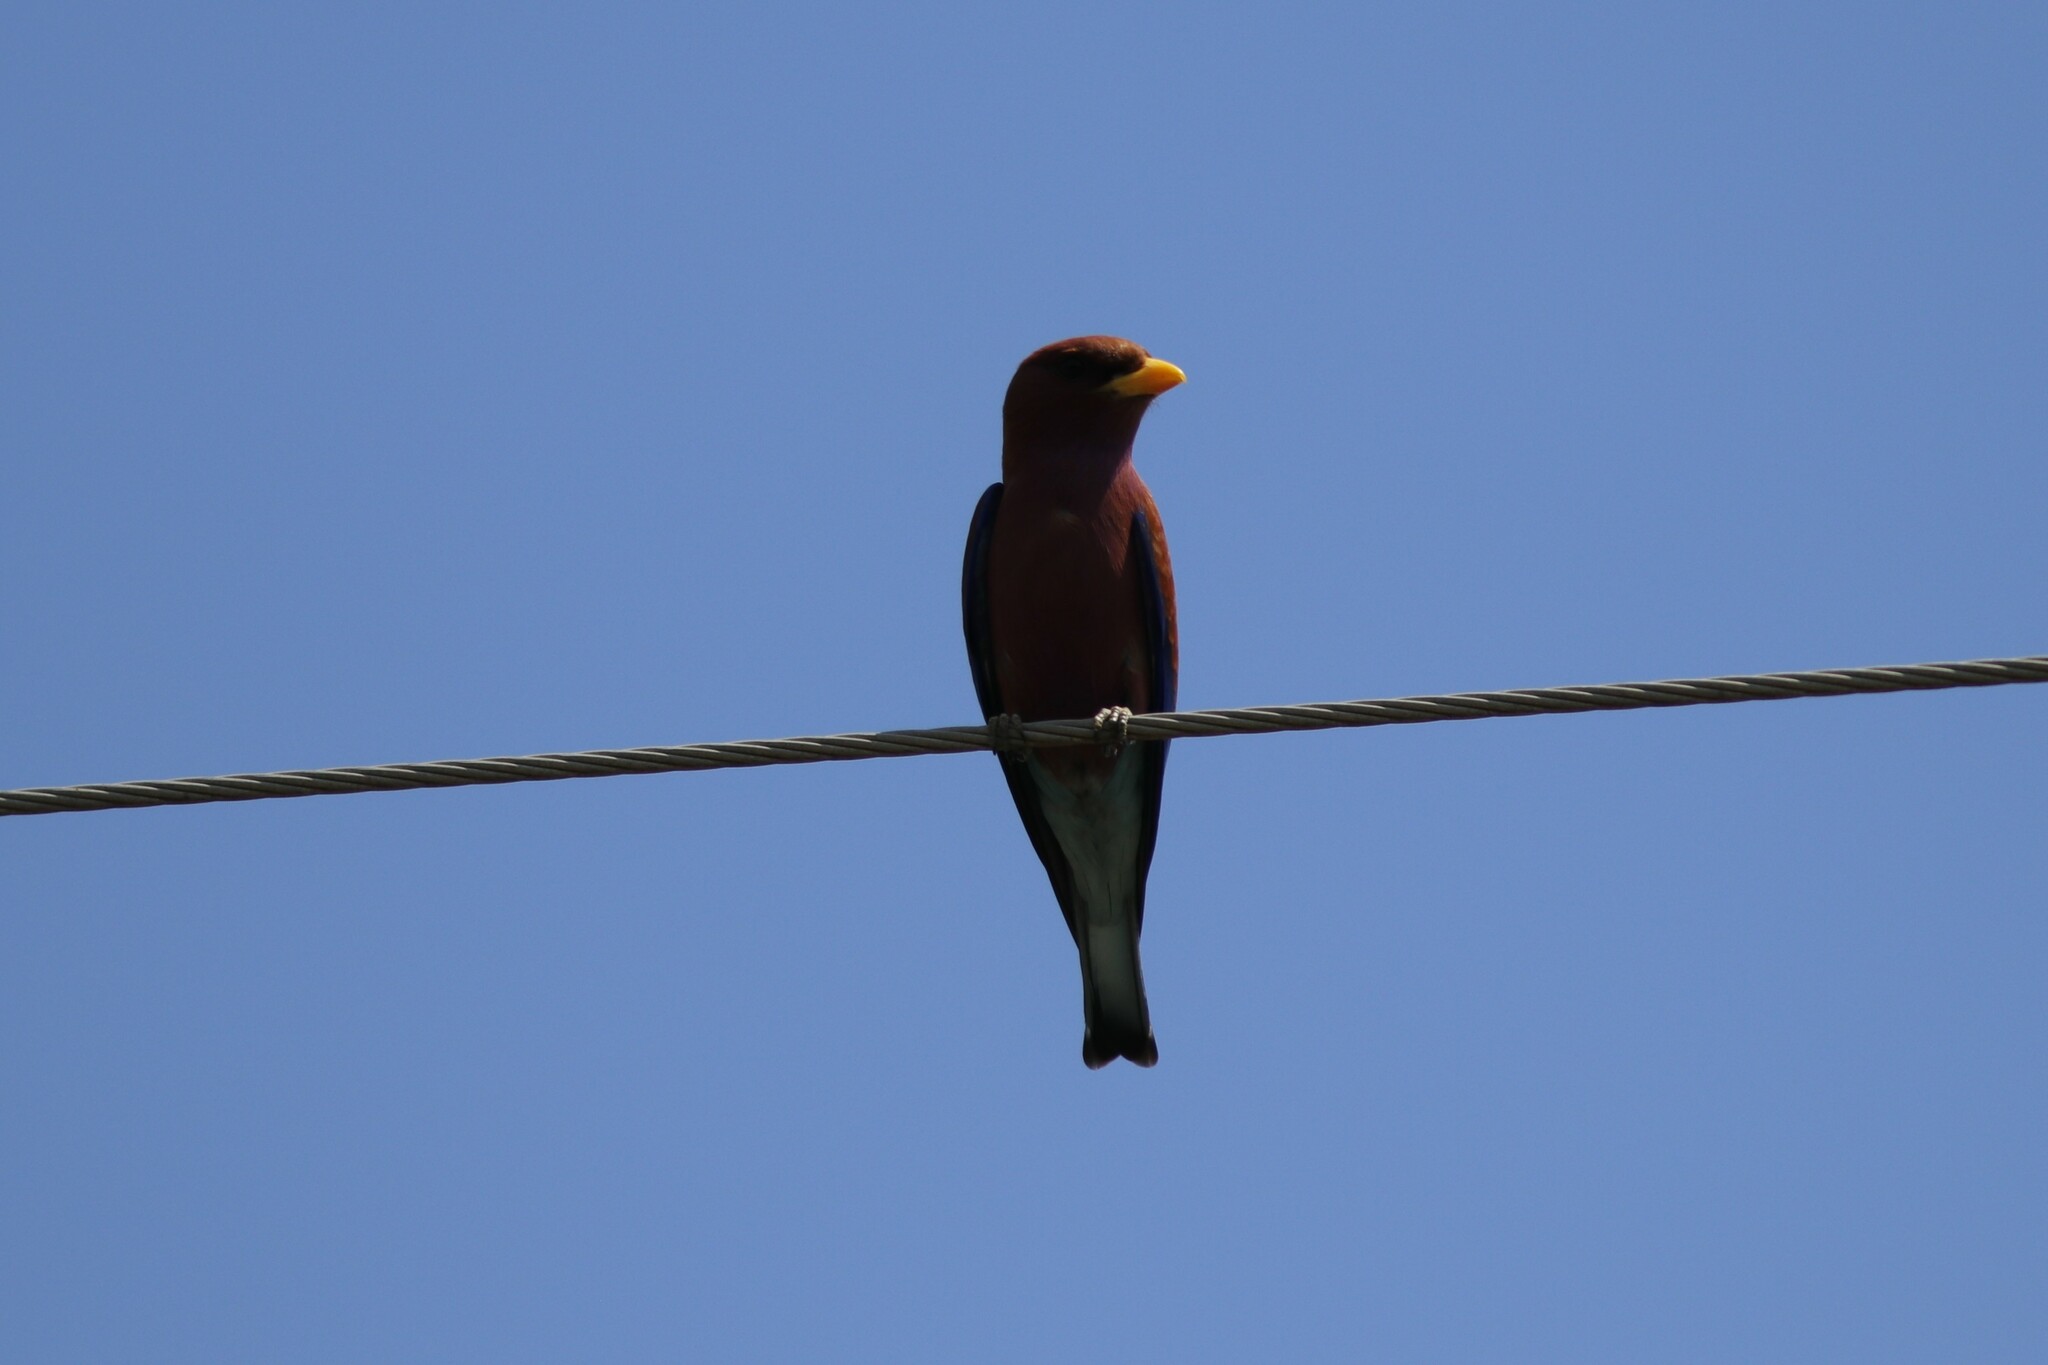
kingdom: Animalia
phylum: Chordata
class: Aves
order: Coraciiformes
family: Coraciidae
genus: Eurystomus
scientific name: Eurystomus glaucurus
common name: Broad-billed roller
